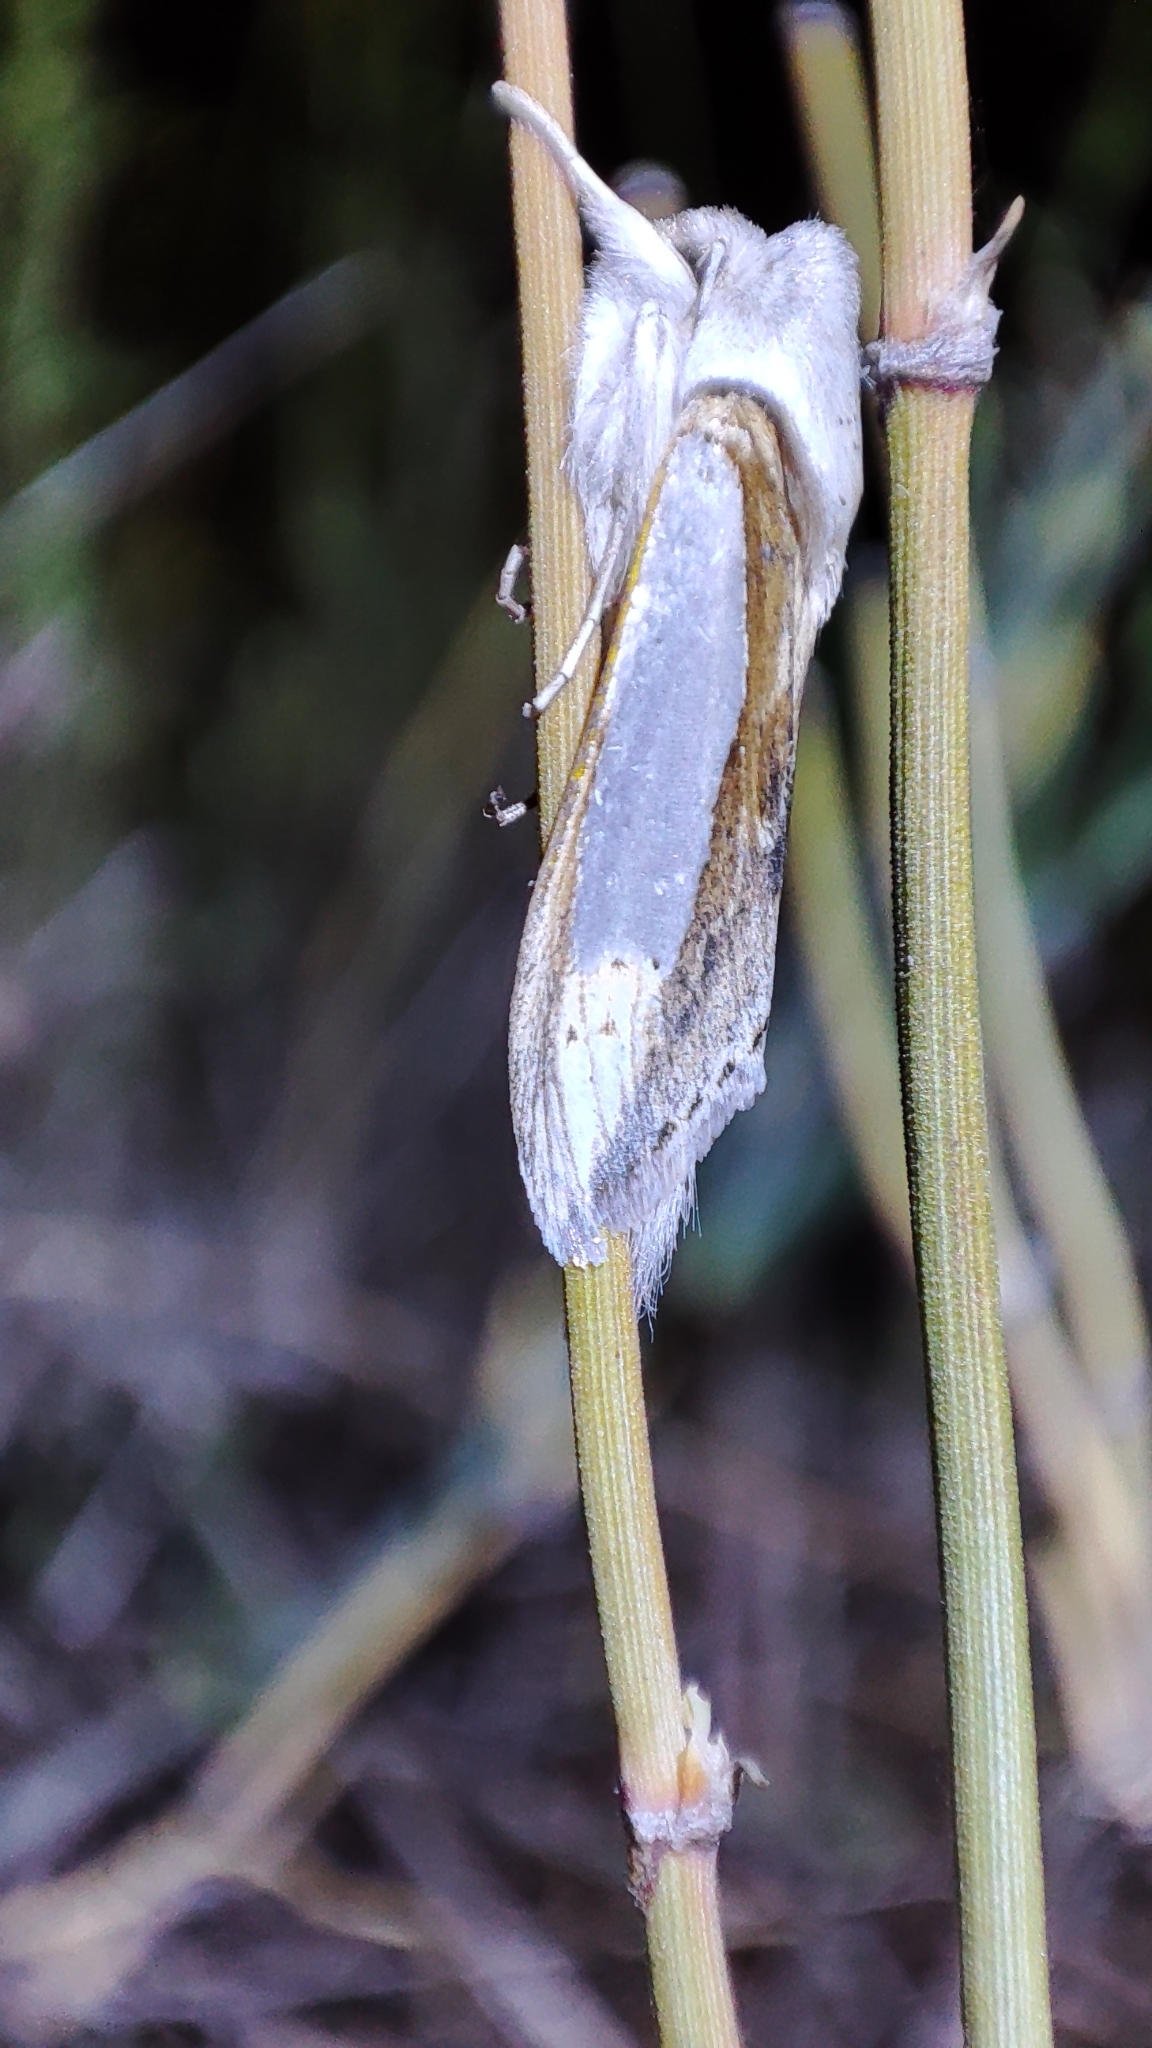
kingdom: Animalia
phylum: Arthropoda
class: Insecta
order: Lepidoptera
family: Noctuidae
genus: Cucullia
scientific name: Cucullia argentina
